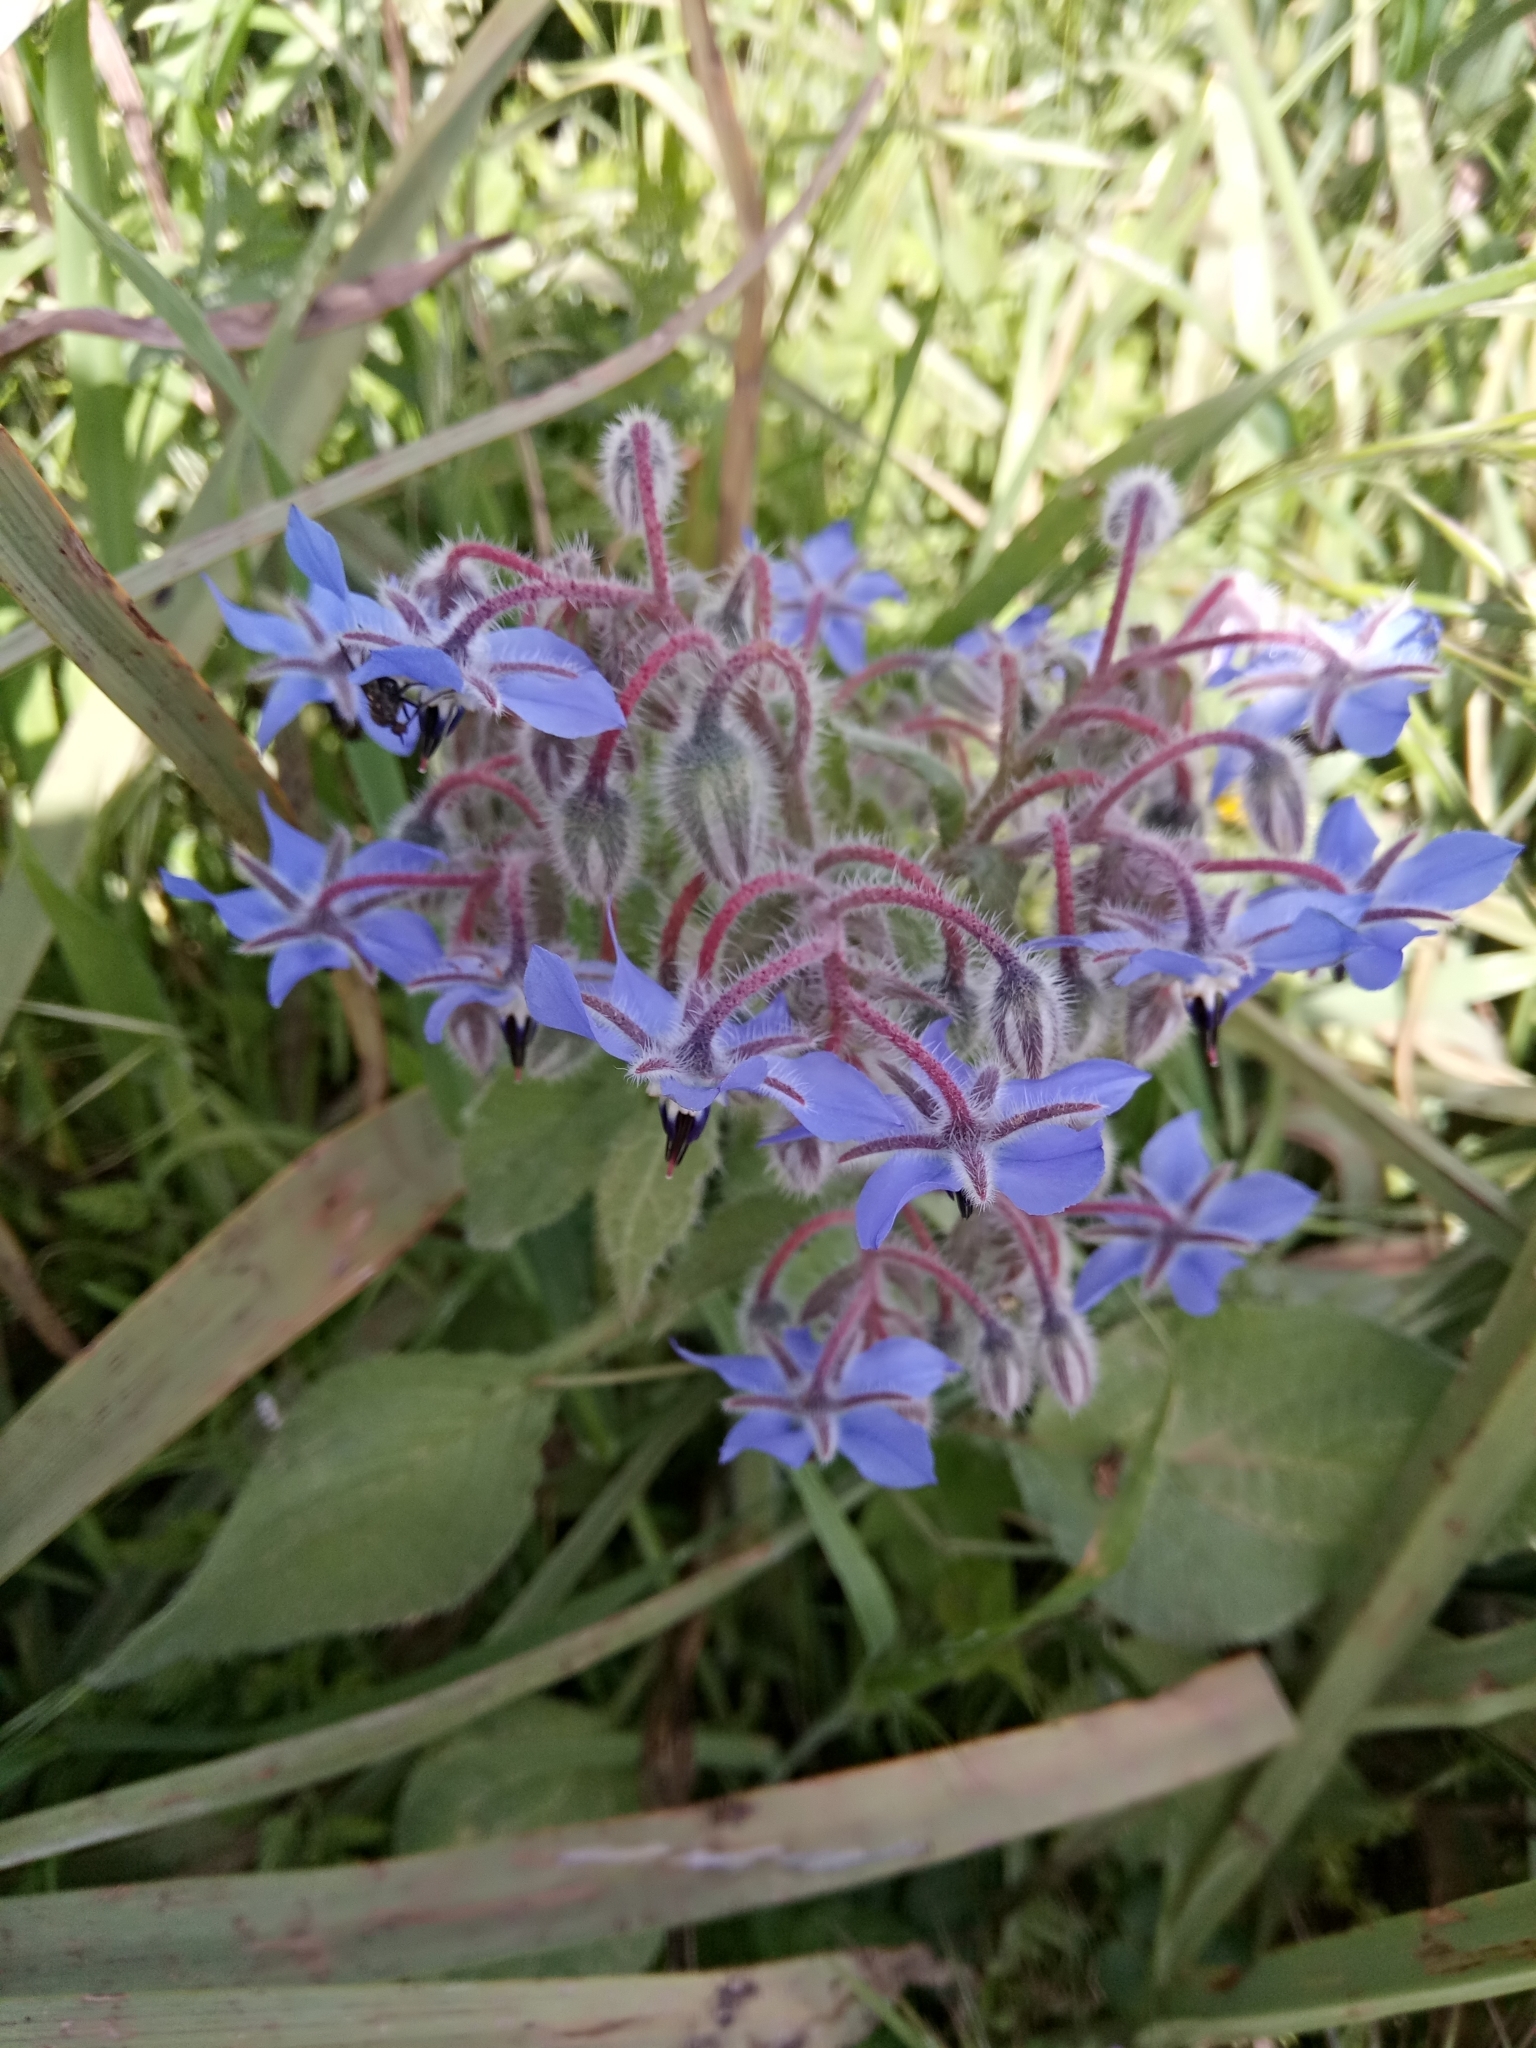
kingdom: Plantae
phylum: Tracheophyta
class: Magnoliopsida
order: Boraginales
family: Boraginaceae
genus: Borago
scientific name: Borago officinalis
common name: Borage
